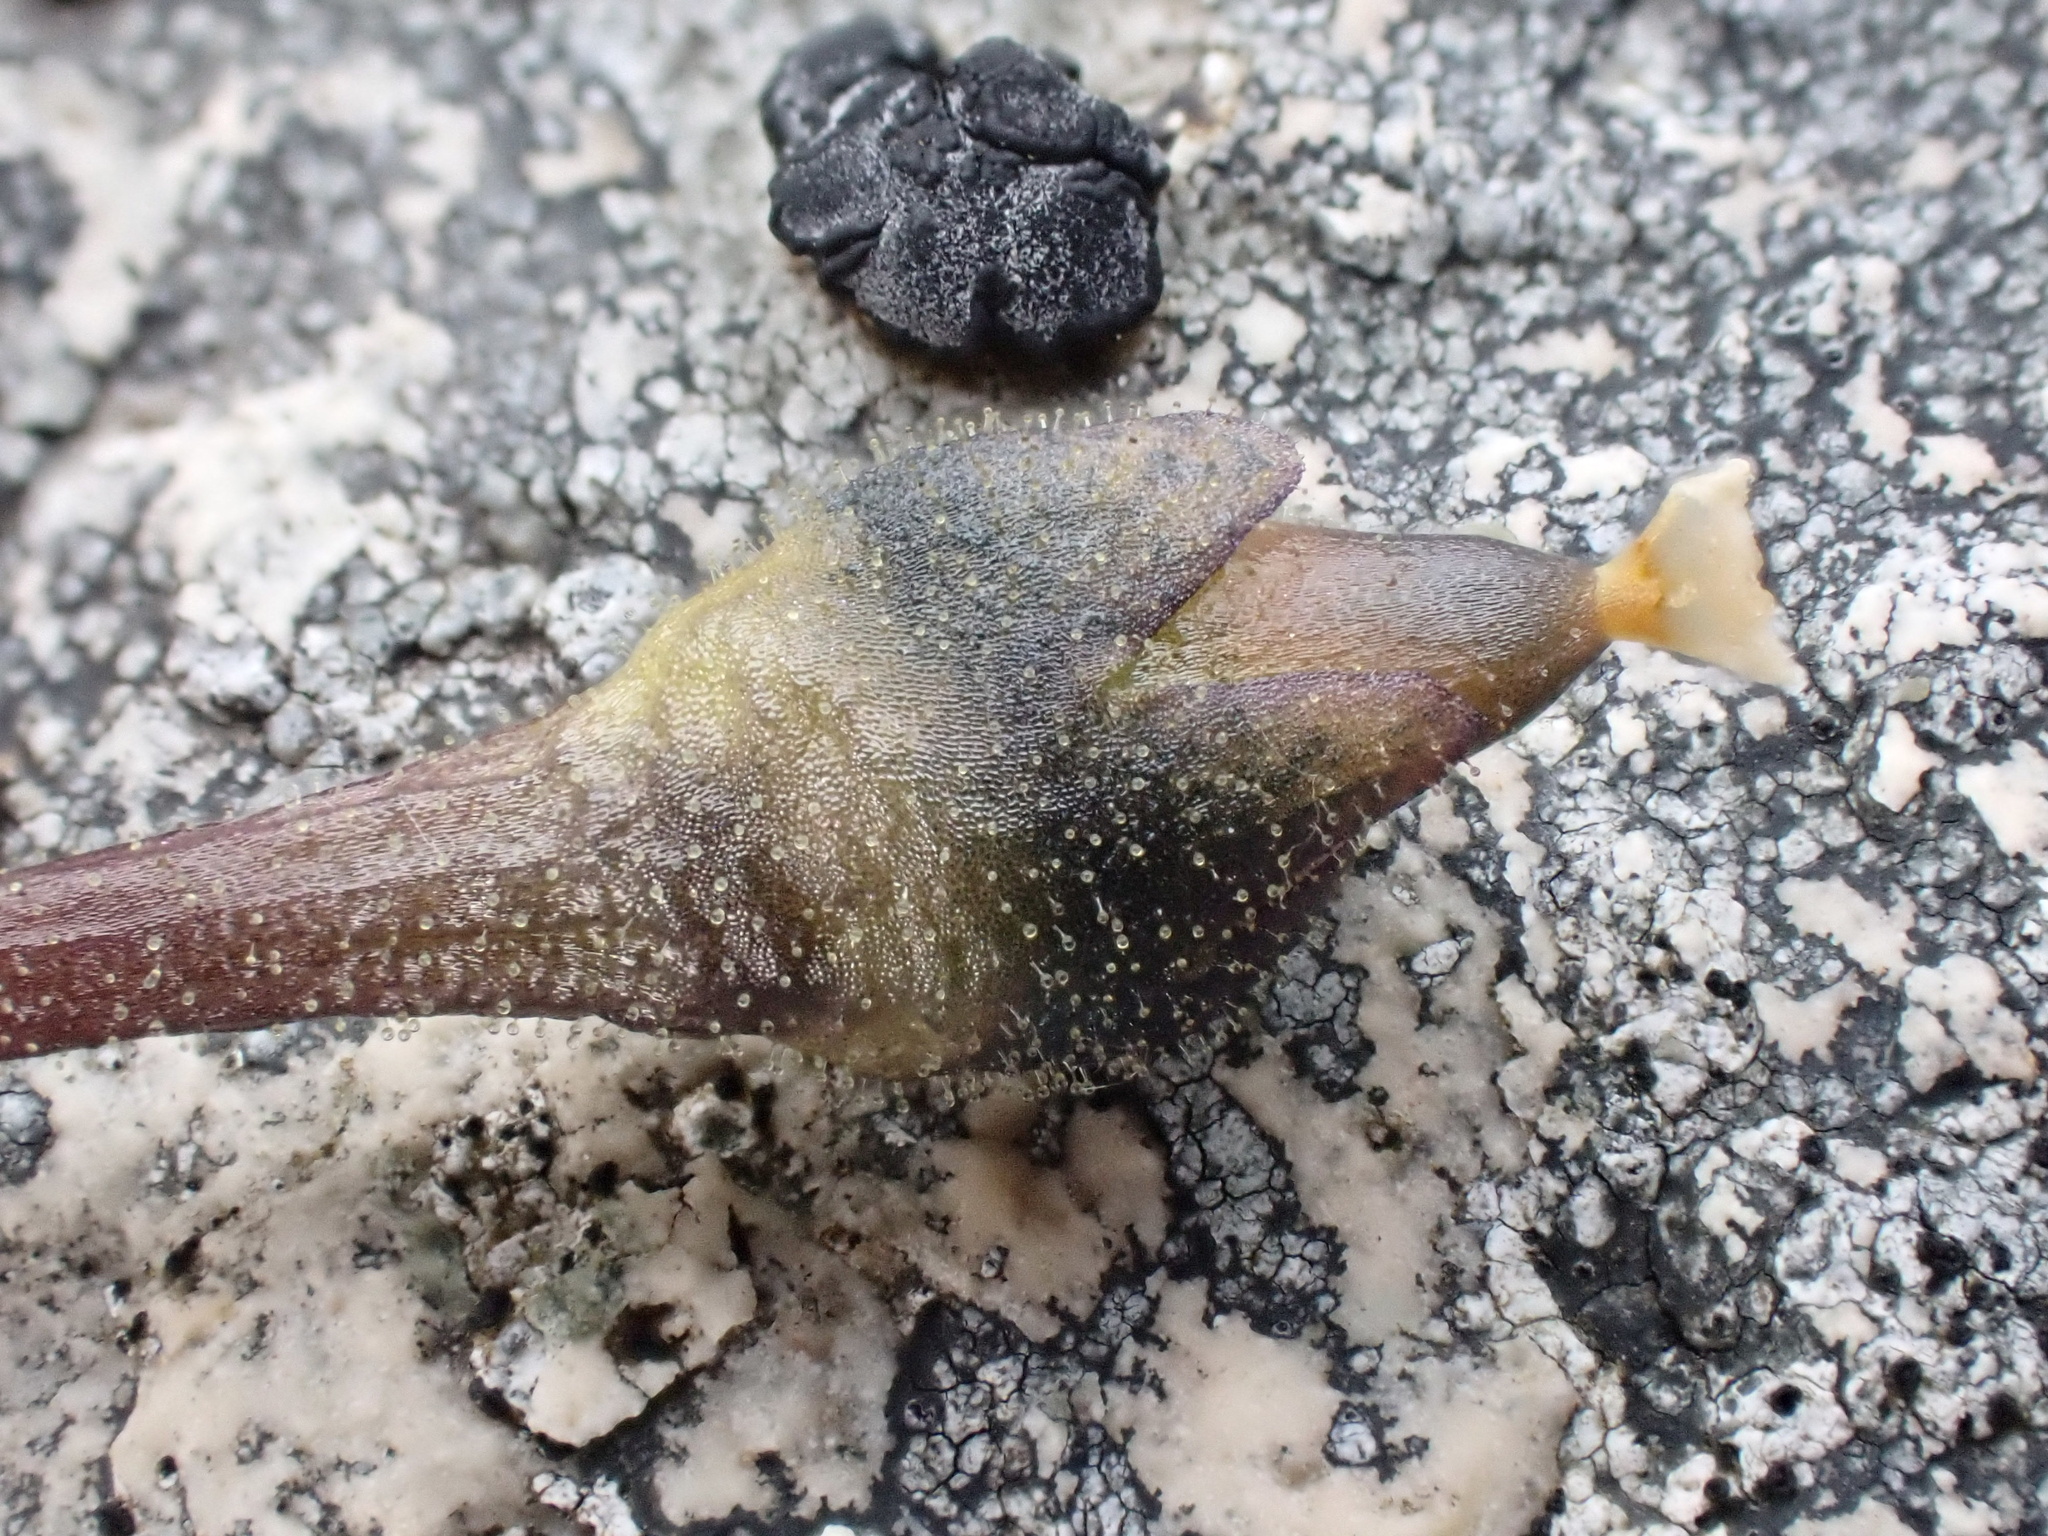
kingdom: Plantae
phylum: Tracheophyta
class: Magnoliopsida
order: Lamiales
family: Lentibulariaceae
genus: Pinguicula
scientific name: Pinguicula vulgaris
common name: Common butterwort
